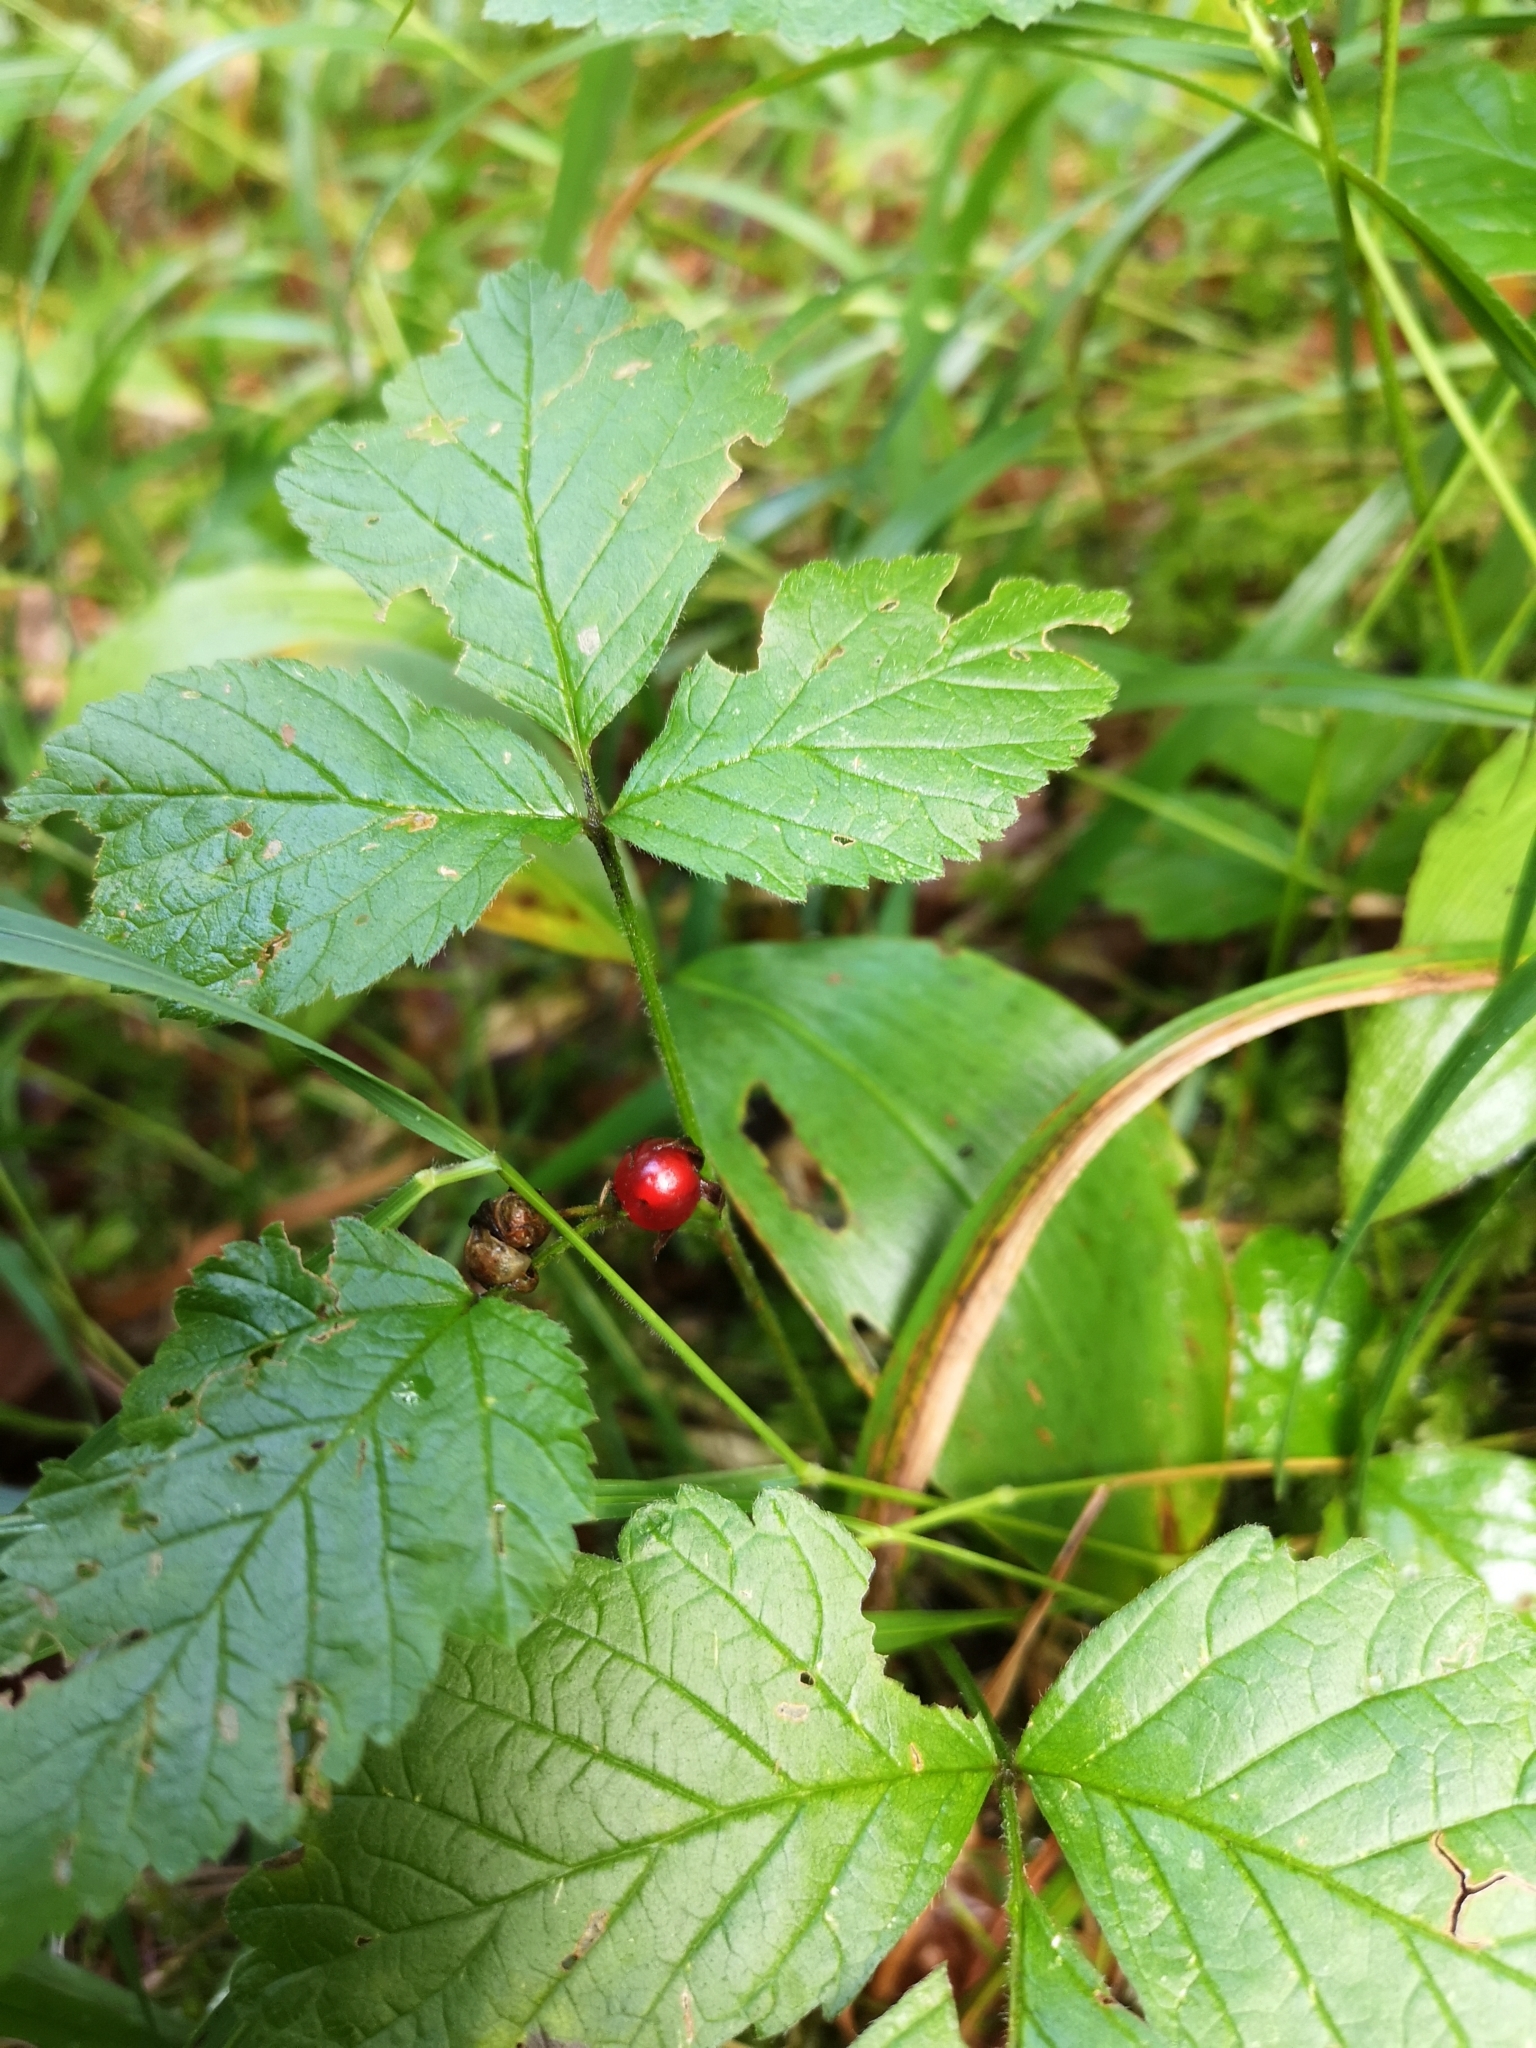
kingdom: Plantae
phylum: Tracheophyta
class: Magnoliopsida
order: Rosales
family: Rosaceae
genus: Rubus
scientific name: Rubus saxatilis
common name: Stone bramble
